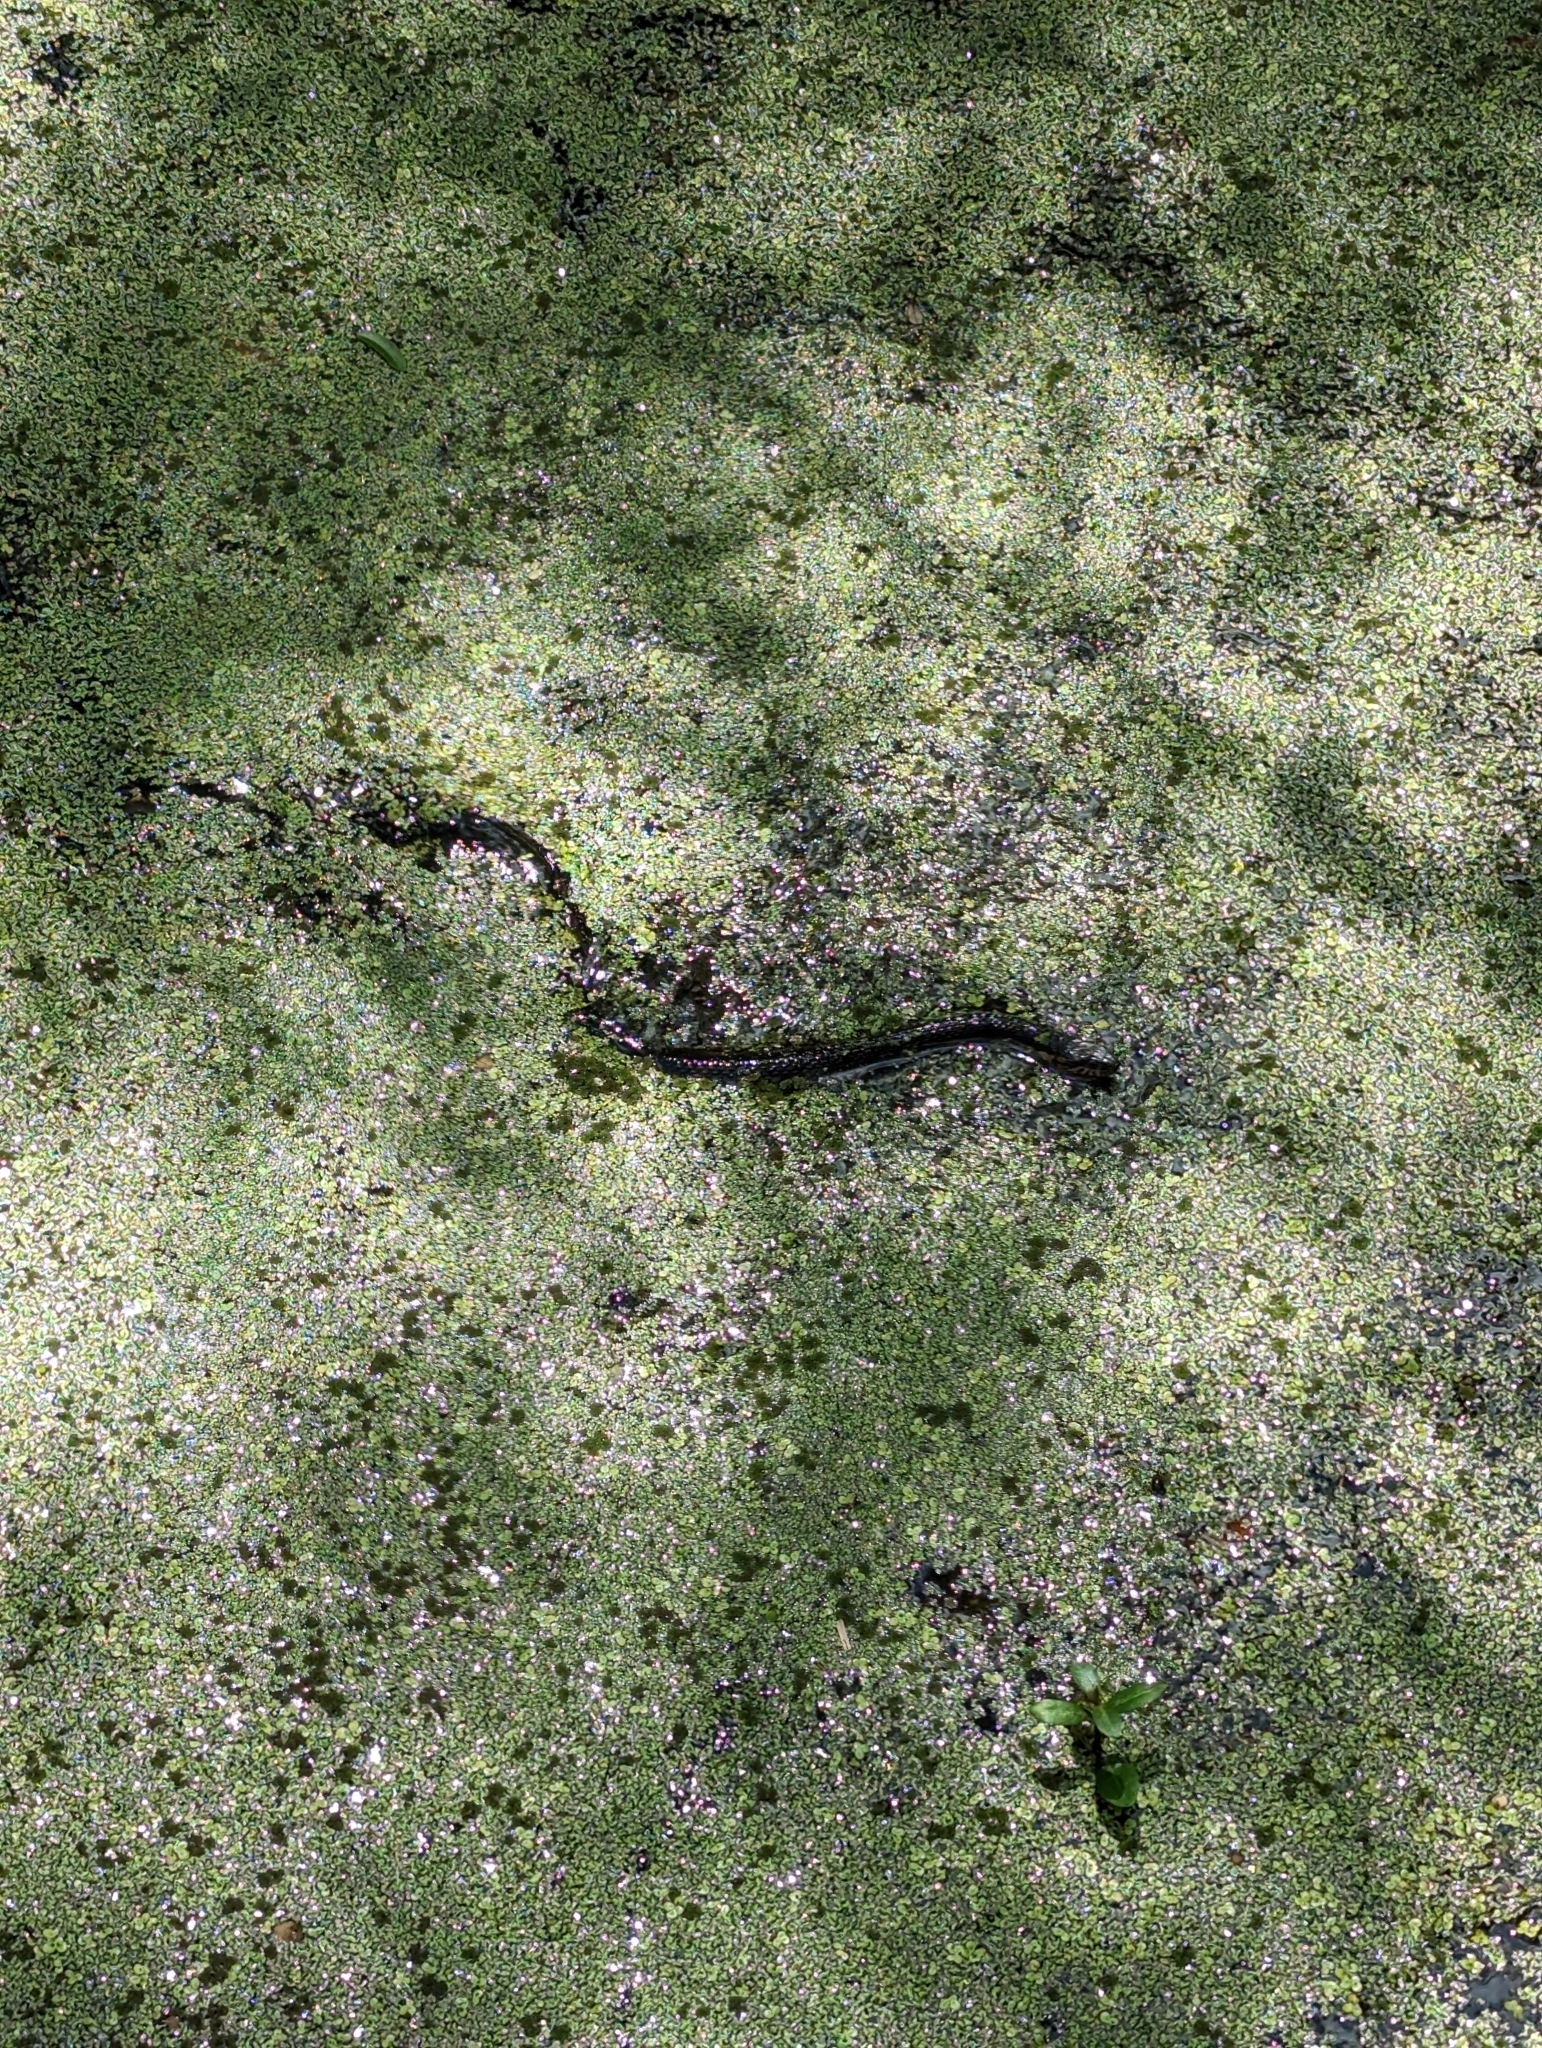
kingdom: Animalia
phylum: Chordata
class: Squamata
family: Colubridae
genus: Nerodia
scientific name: Nerodia fasciata
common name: Southern water snake
